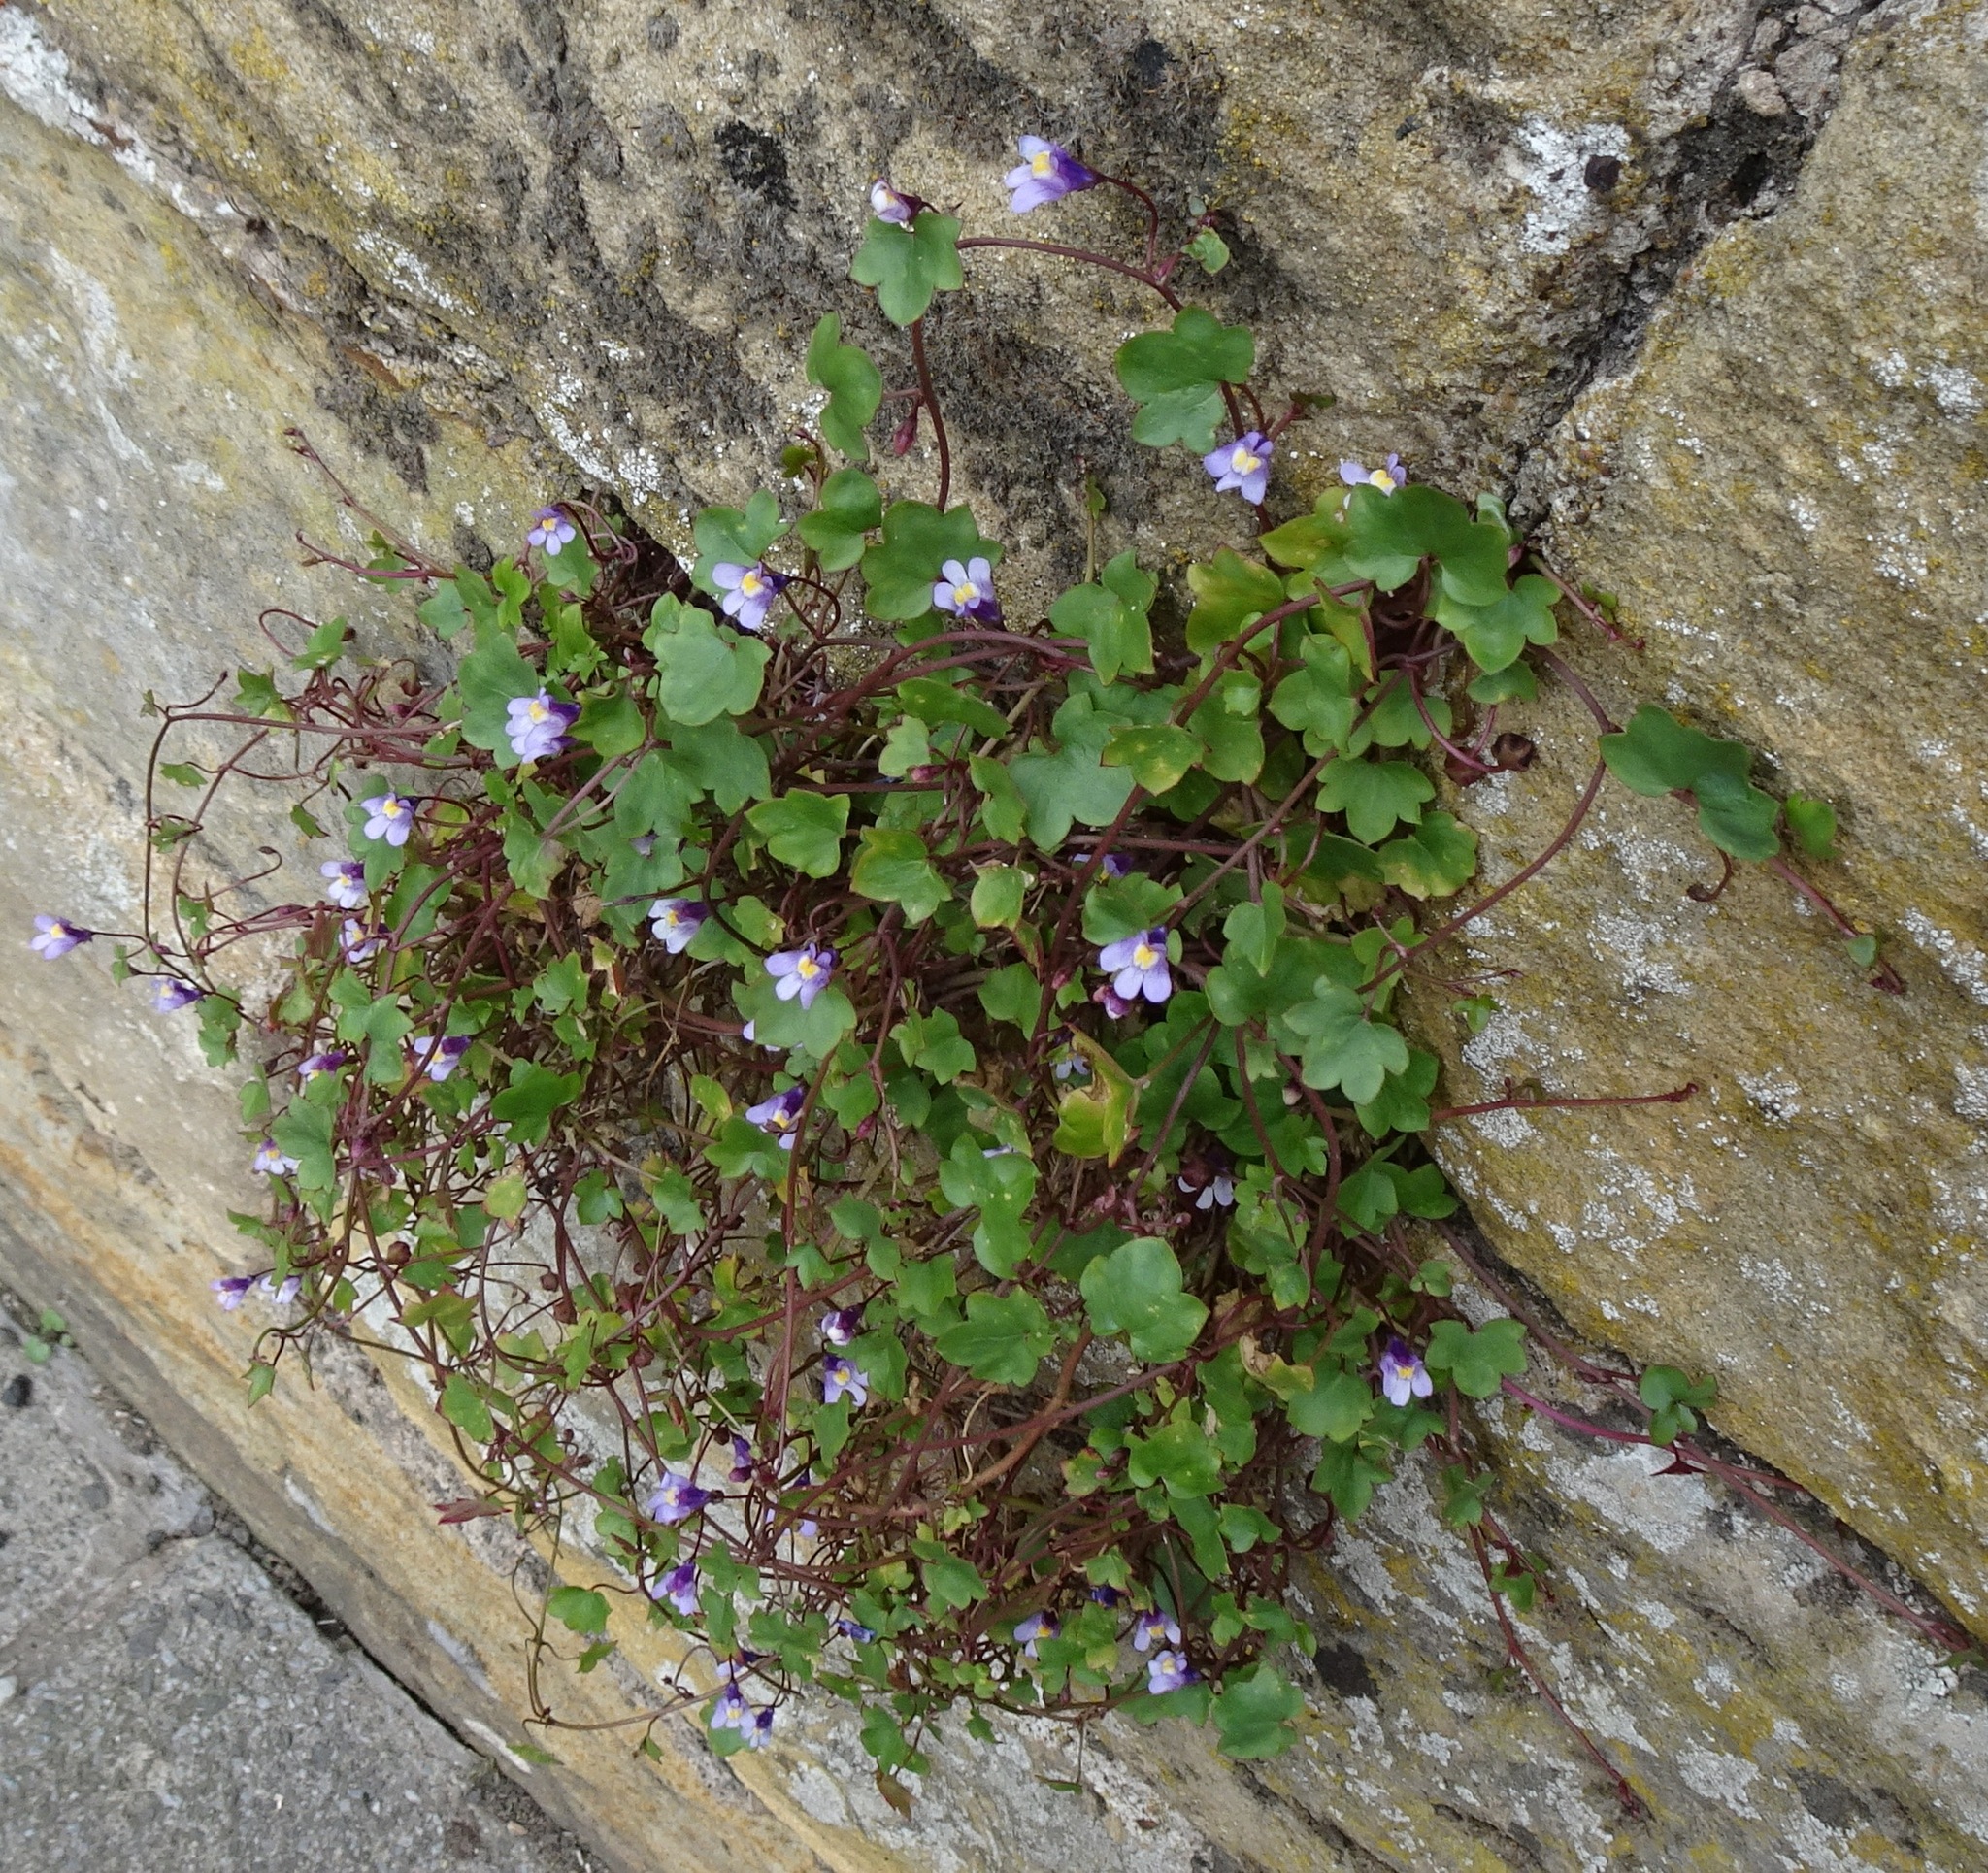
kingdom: Plantae
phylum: Tracheophyta
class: Magnoliopsida
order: Lamiales
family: Plantaginaceae
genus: Cymbalaria
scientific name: Cymbalaria muralis
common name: Ivy-leaved toadflax
